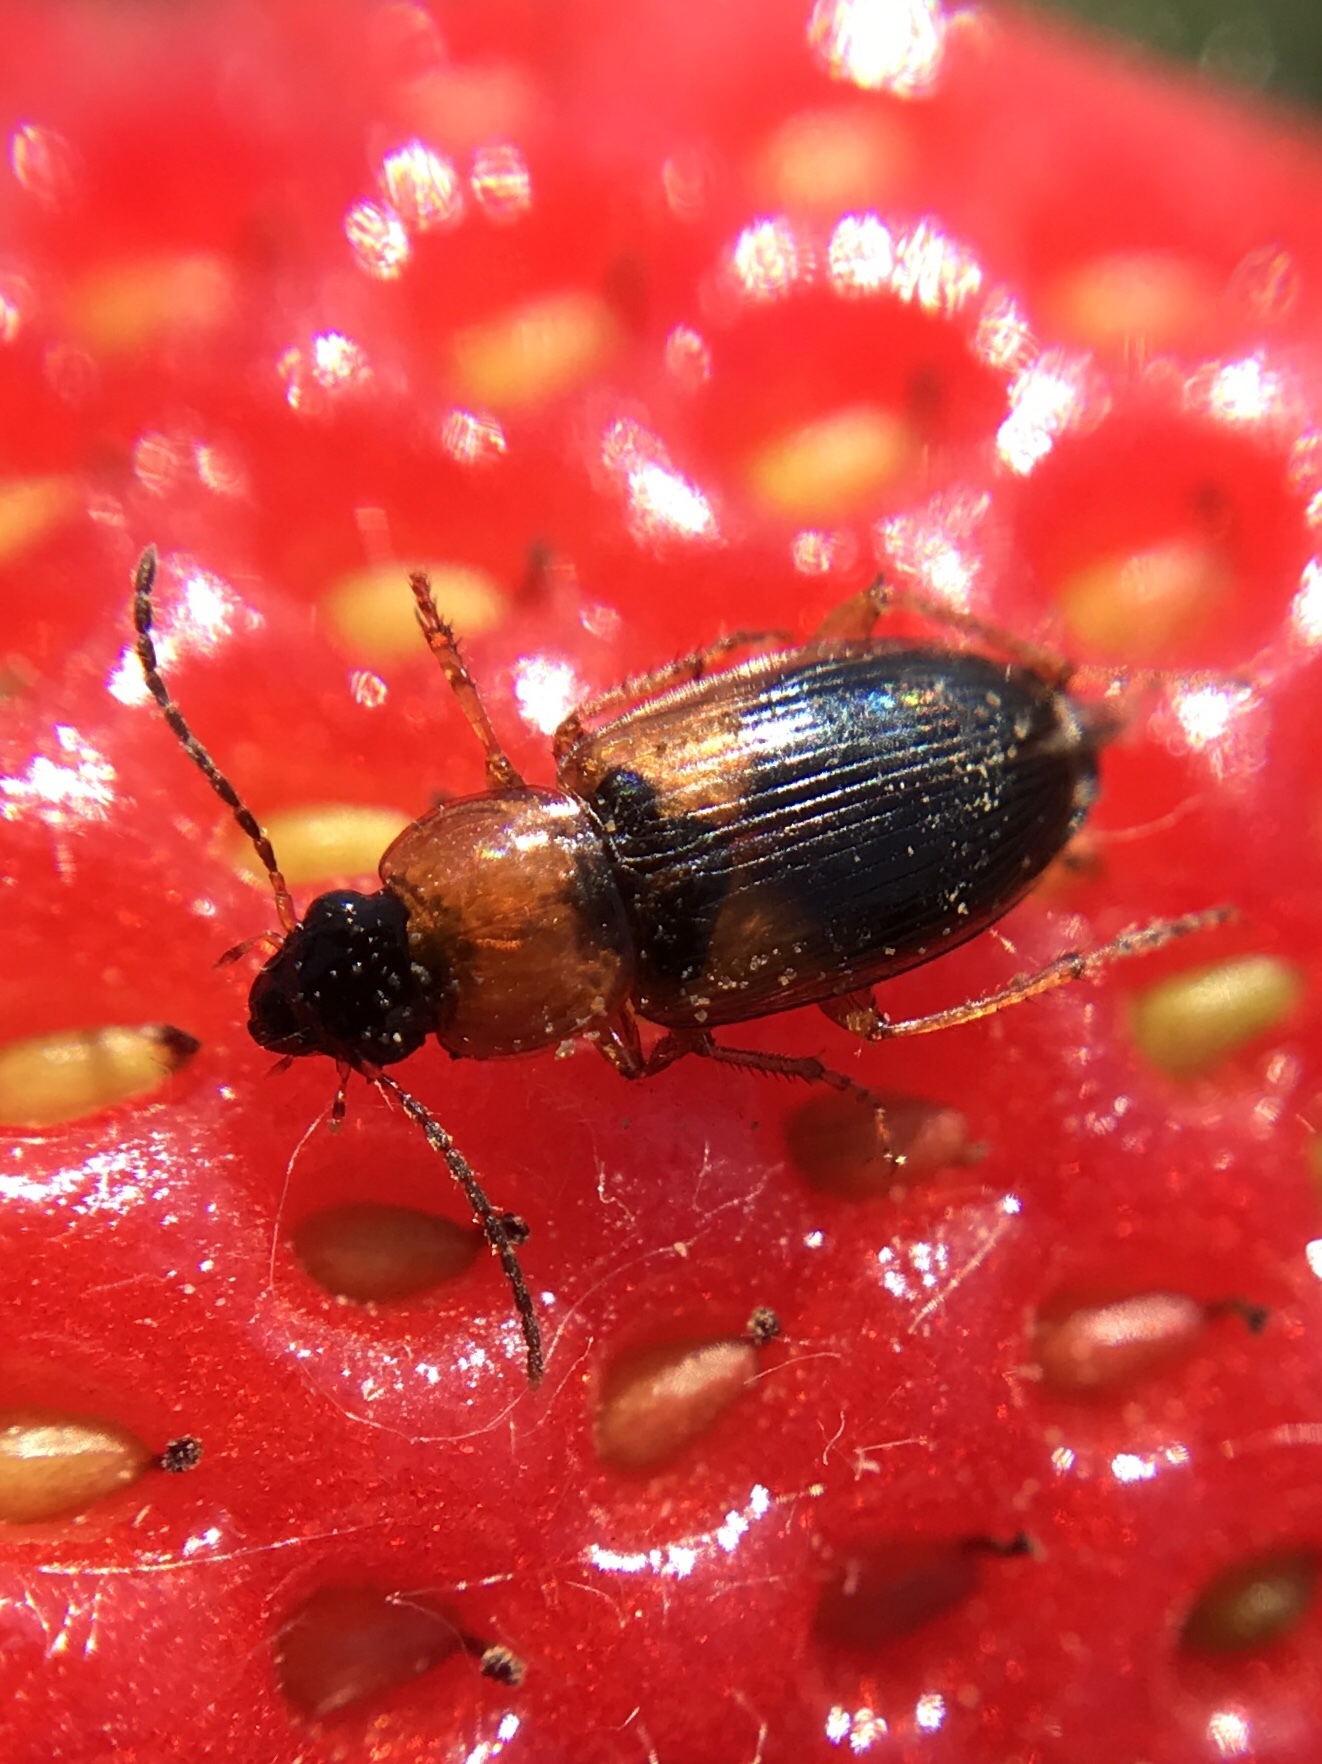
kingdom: Animalia
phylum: Arthropoda
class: Insecta
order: Coleoptera
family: Carabidae
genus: Stenolophus
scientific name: Stenolophus teutonus
